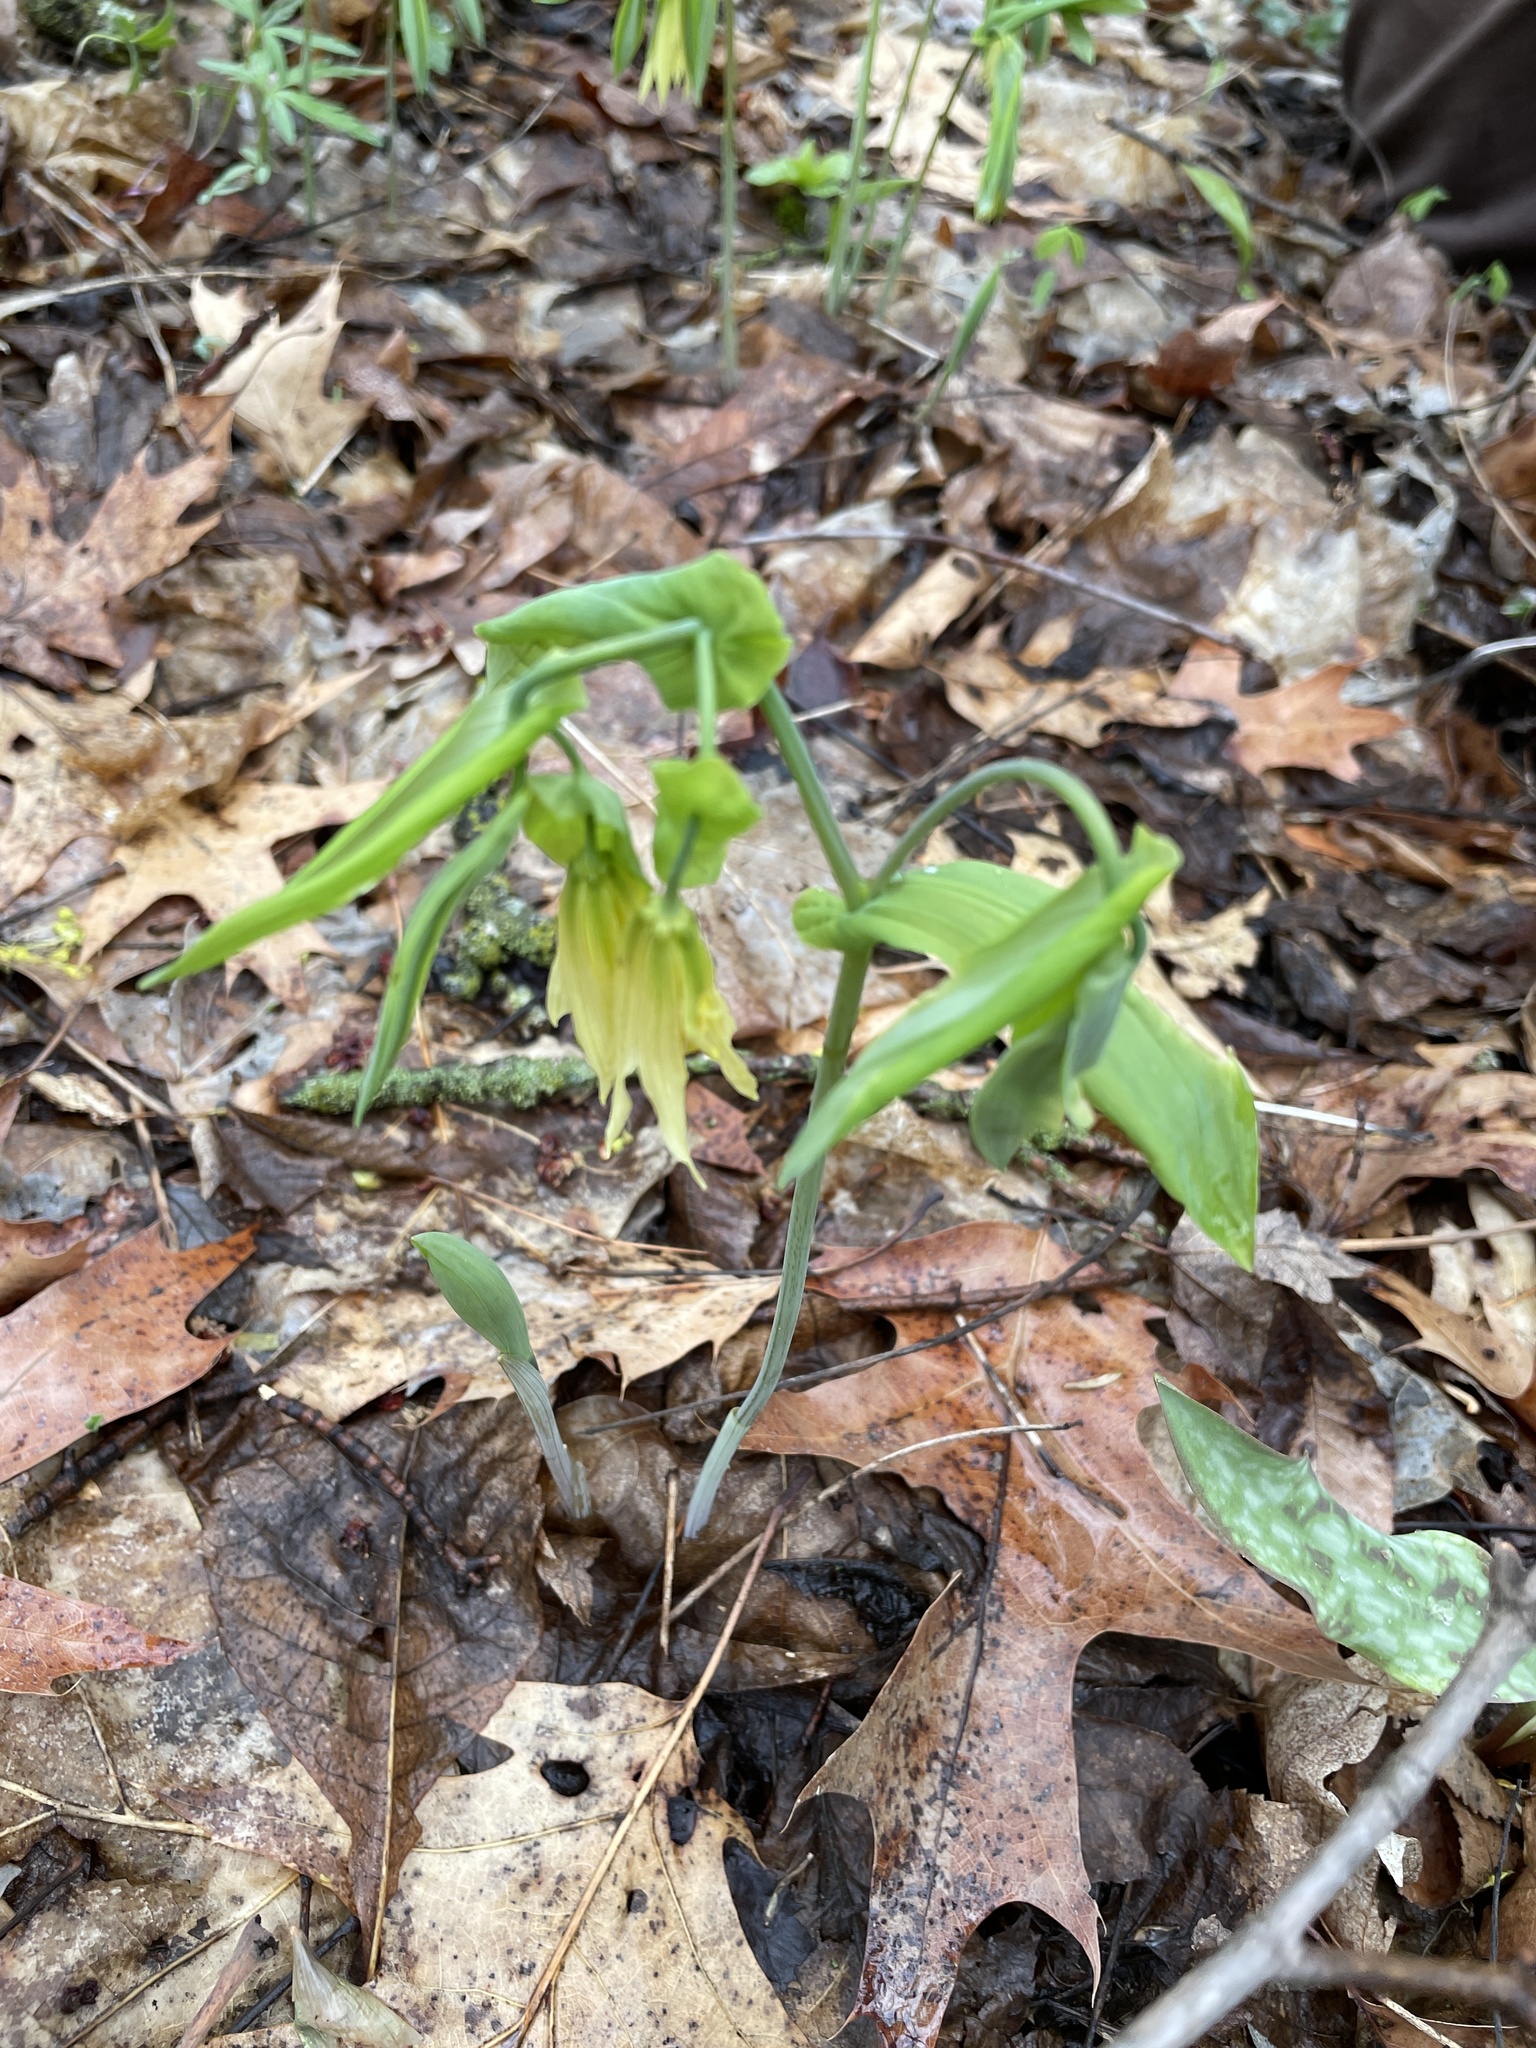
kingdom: Plantae
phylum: Tracheophyta
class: Liliopsida
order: Liliales
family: Colchicaceae
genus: Uvularia
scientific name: Uvularia grandiflora
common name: Bellwort
